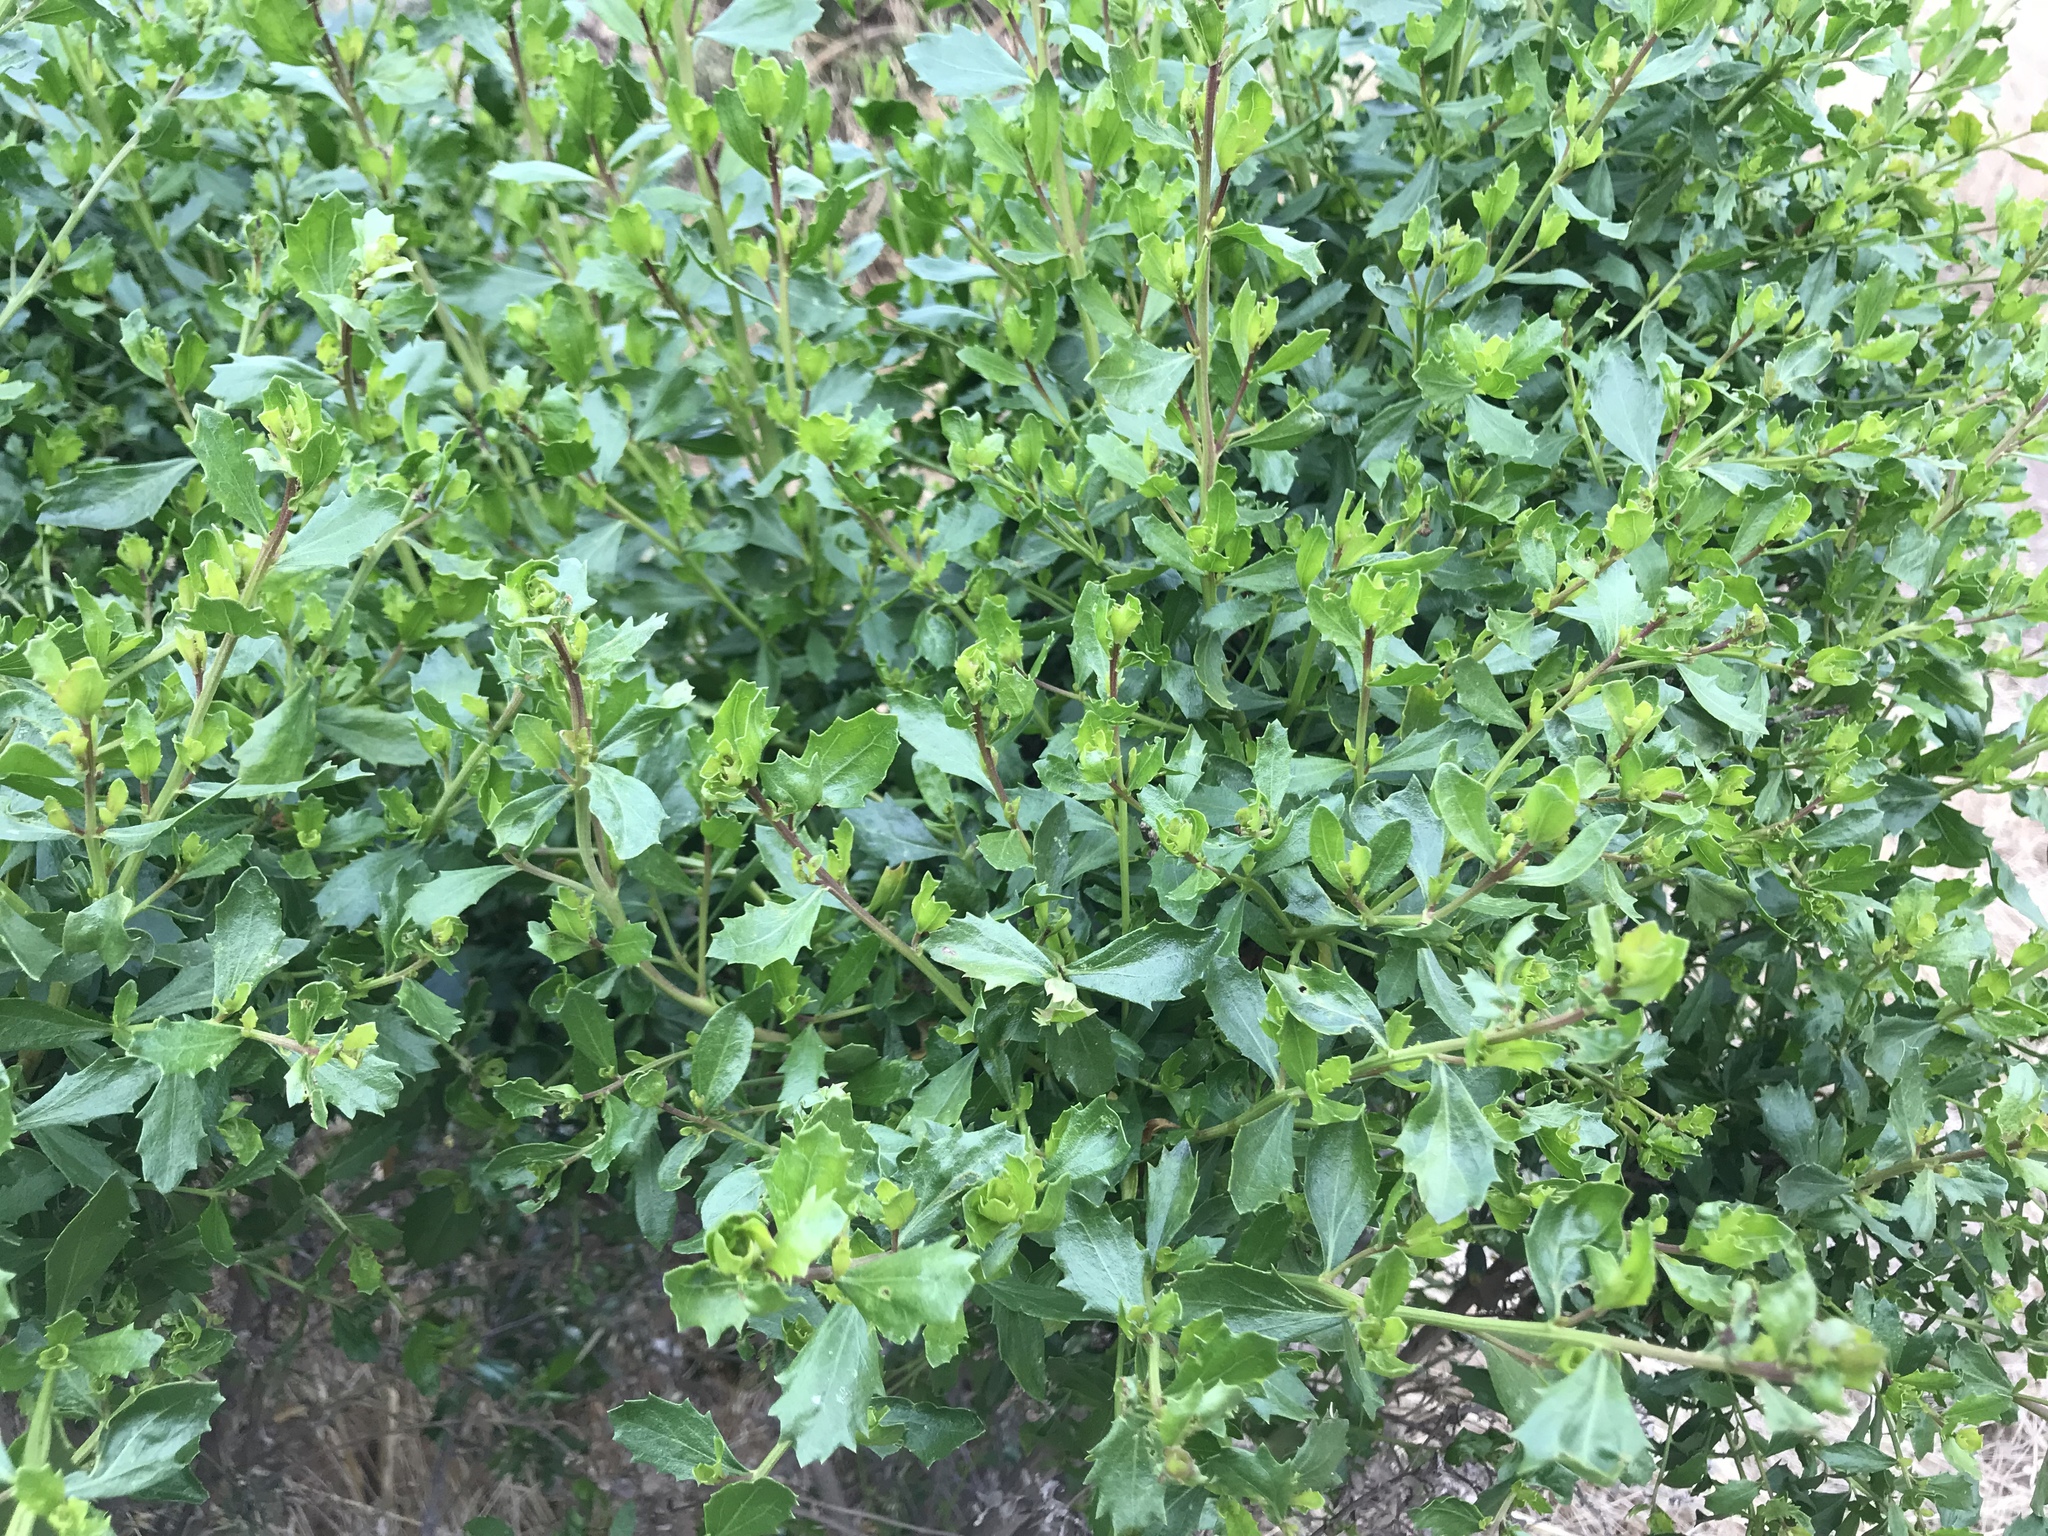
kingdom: Plantae
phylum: Tracheophyta
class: Magnoliopsida
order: Asterales
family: Asteraceae
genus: Baccharis
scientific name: Baccharis pilularis
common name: Coyotebrush
